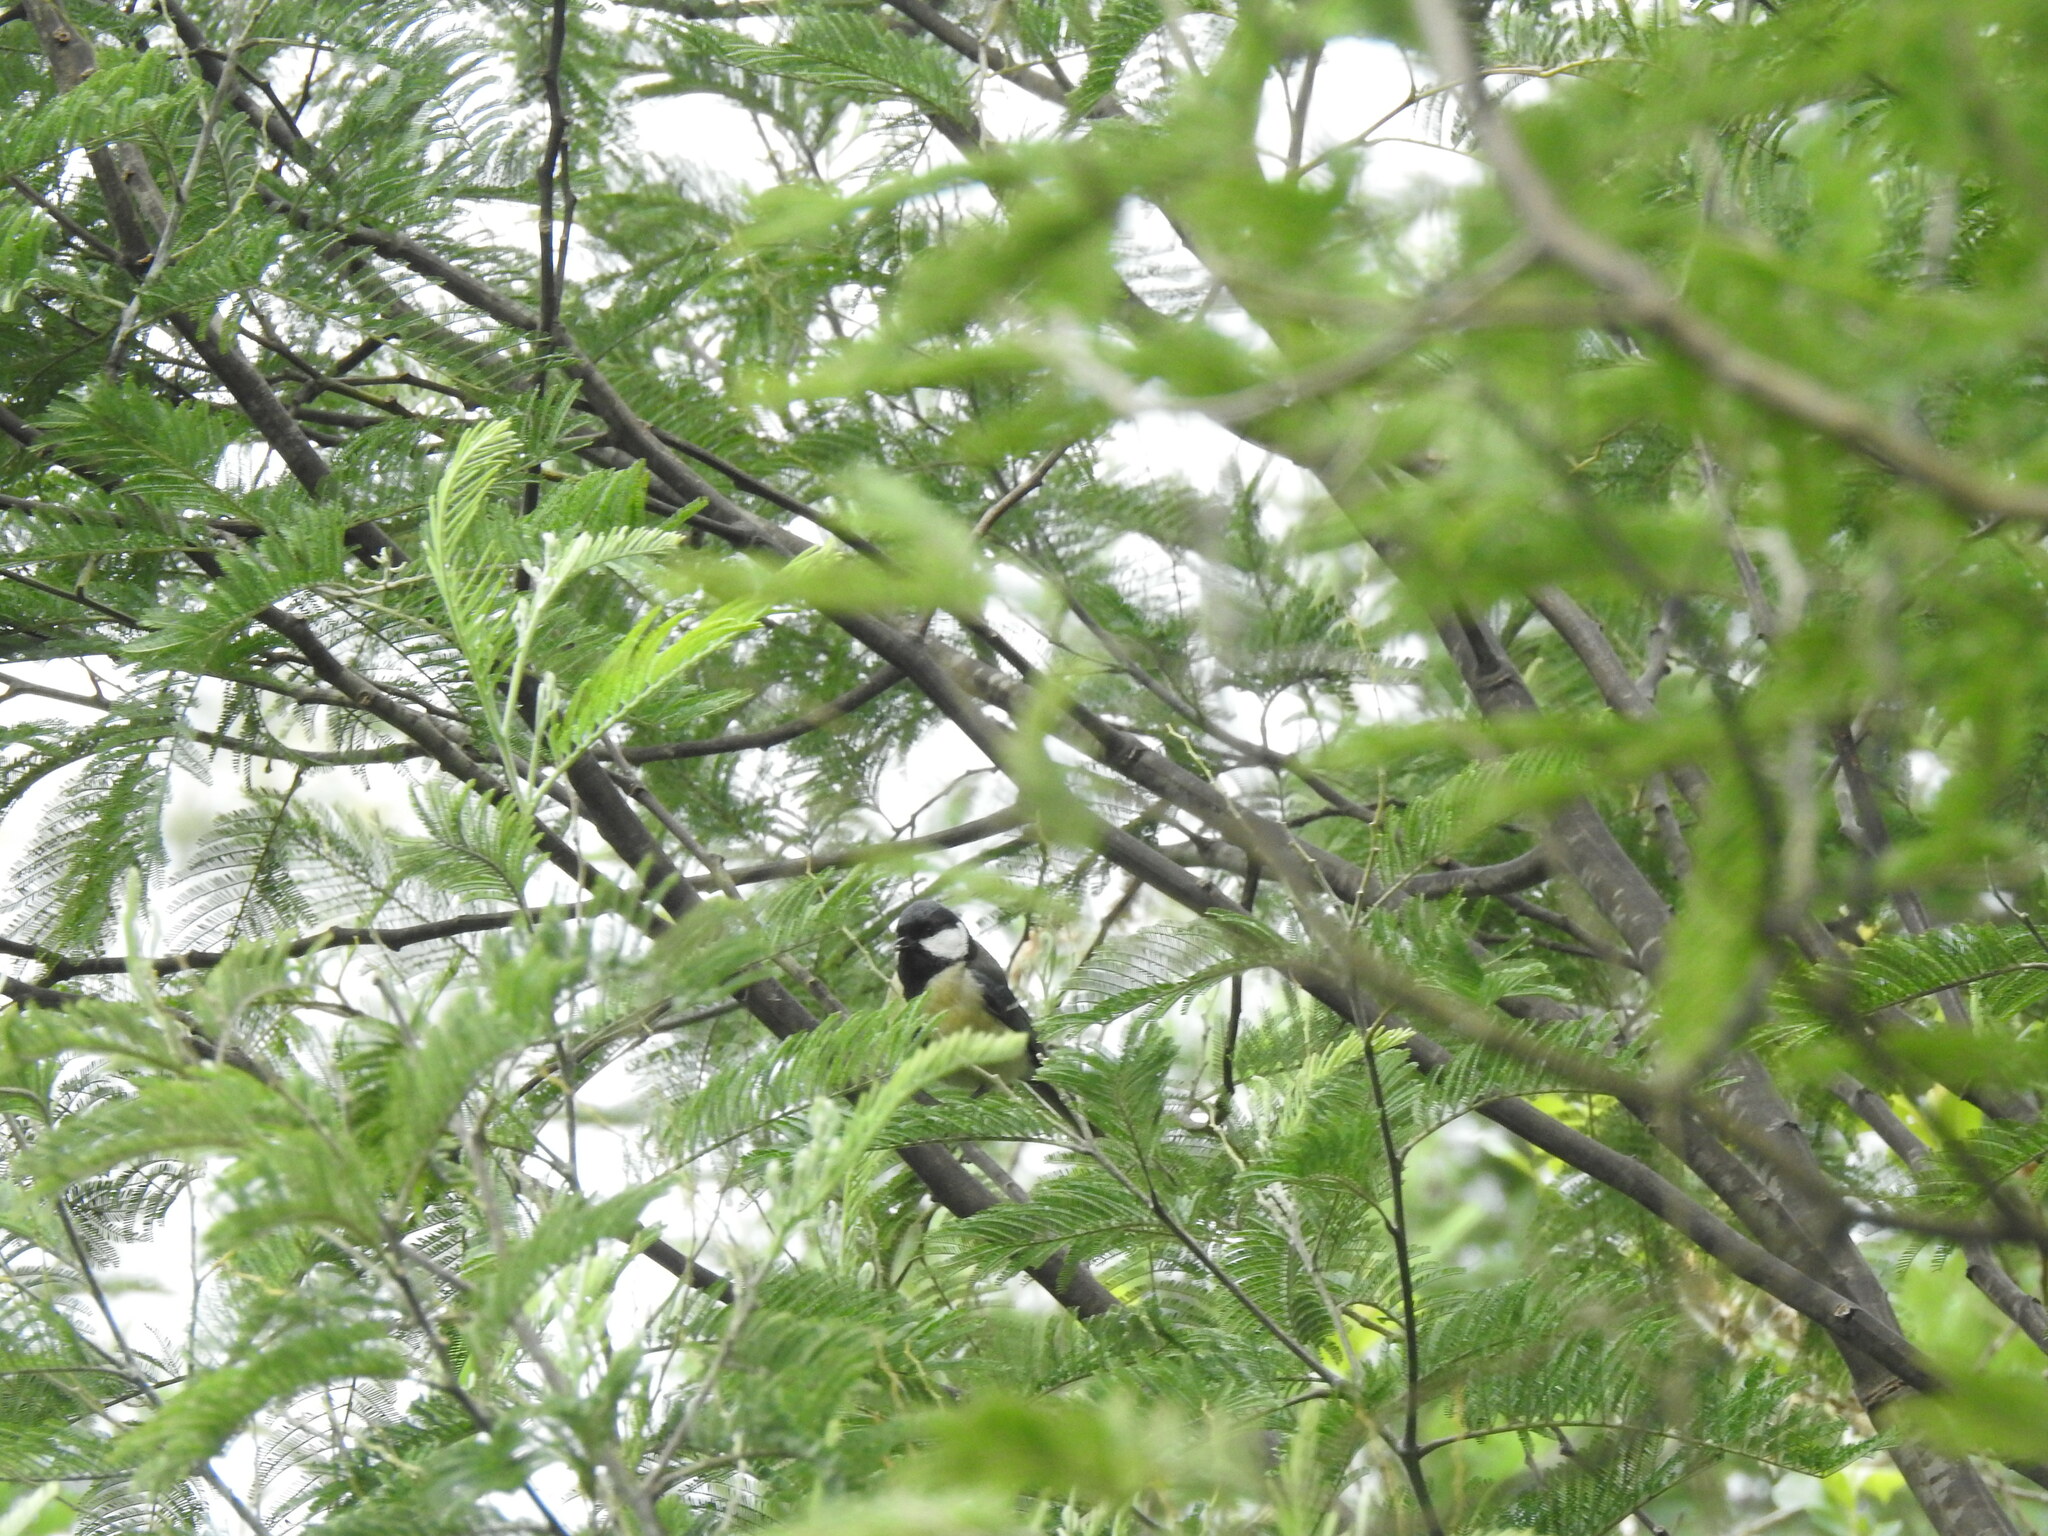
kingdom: Animalia
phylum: Chordata
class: Aves
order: Passeriformes
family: Paridae
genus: Parus
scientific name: Parus major
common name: Great tit
